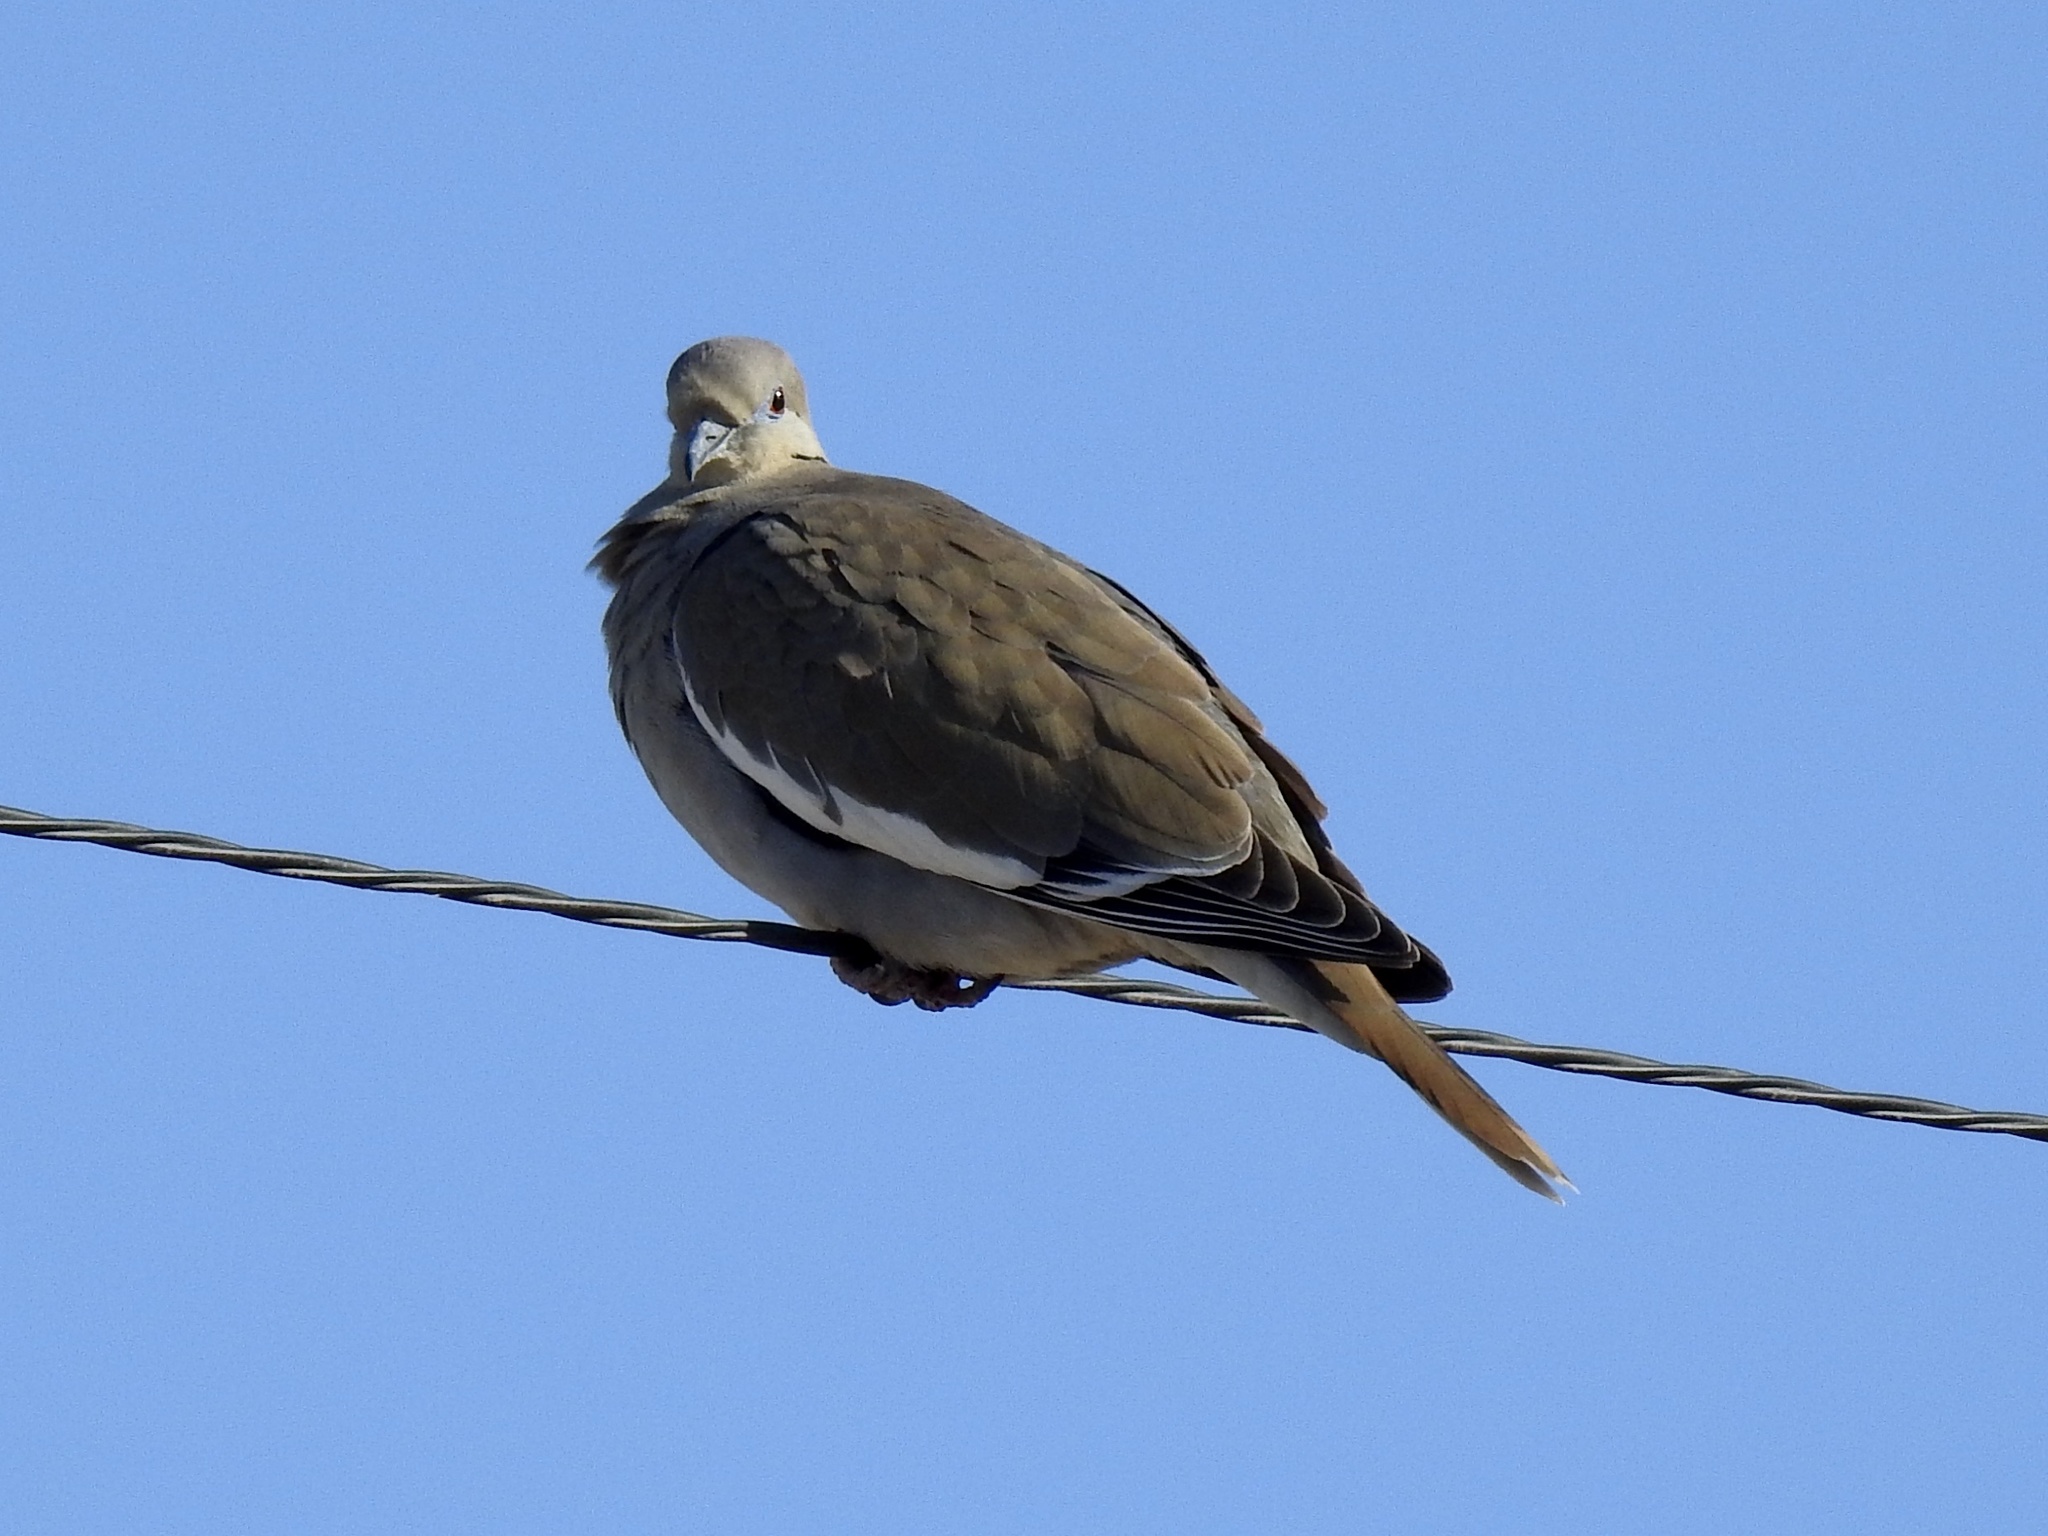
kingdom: Animalia
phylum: Chordata
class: Aves
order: Columbiformes
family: Columbidae
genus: Zenaida
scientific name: Zenaida asiatica
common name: White-winged dove
